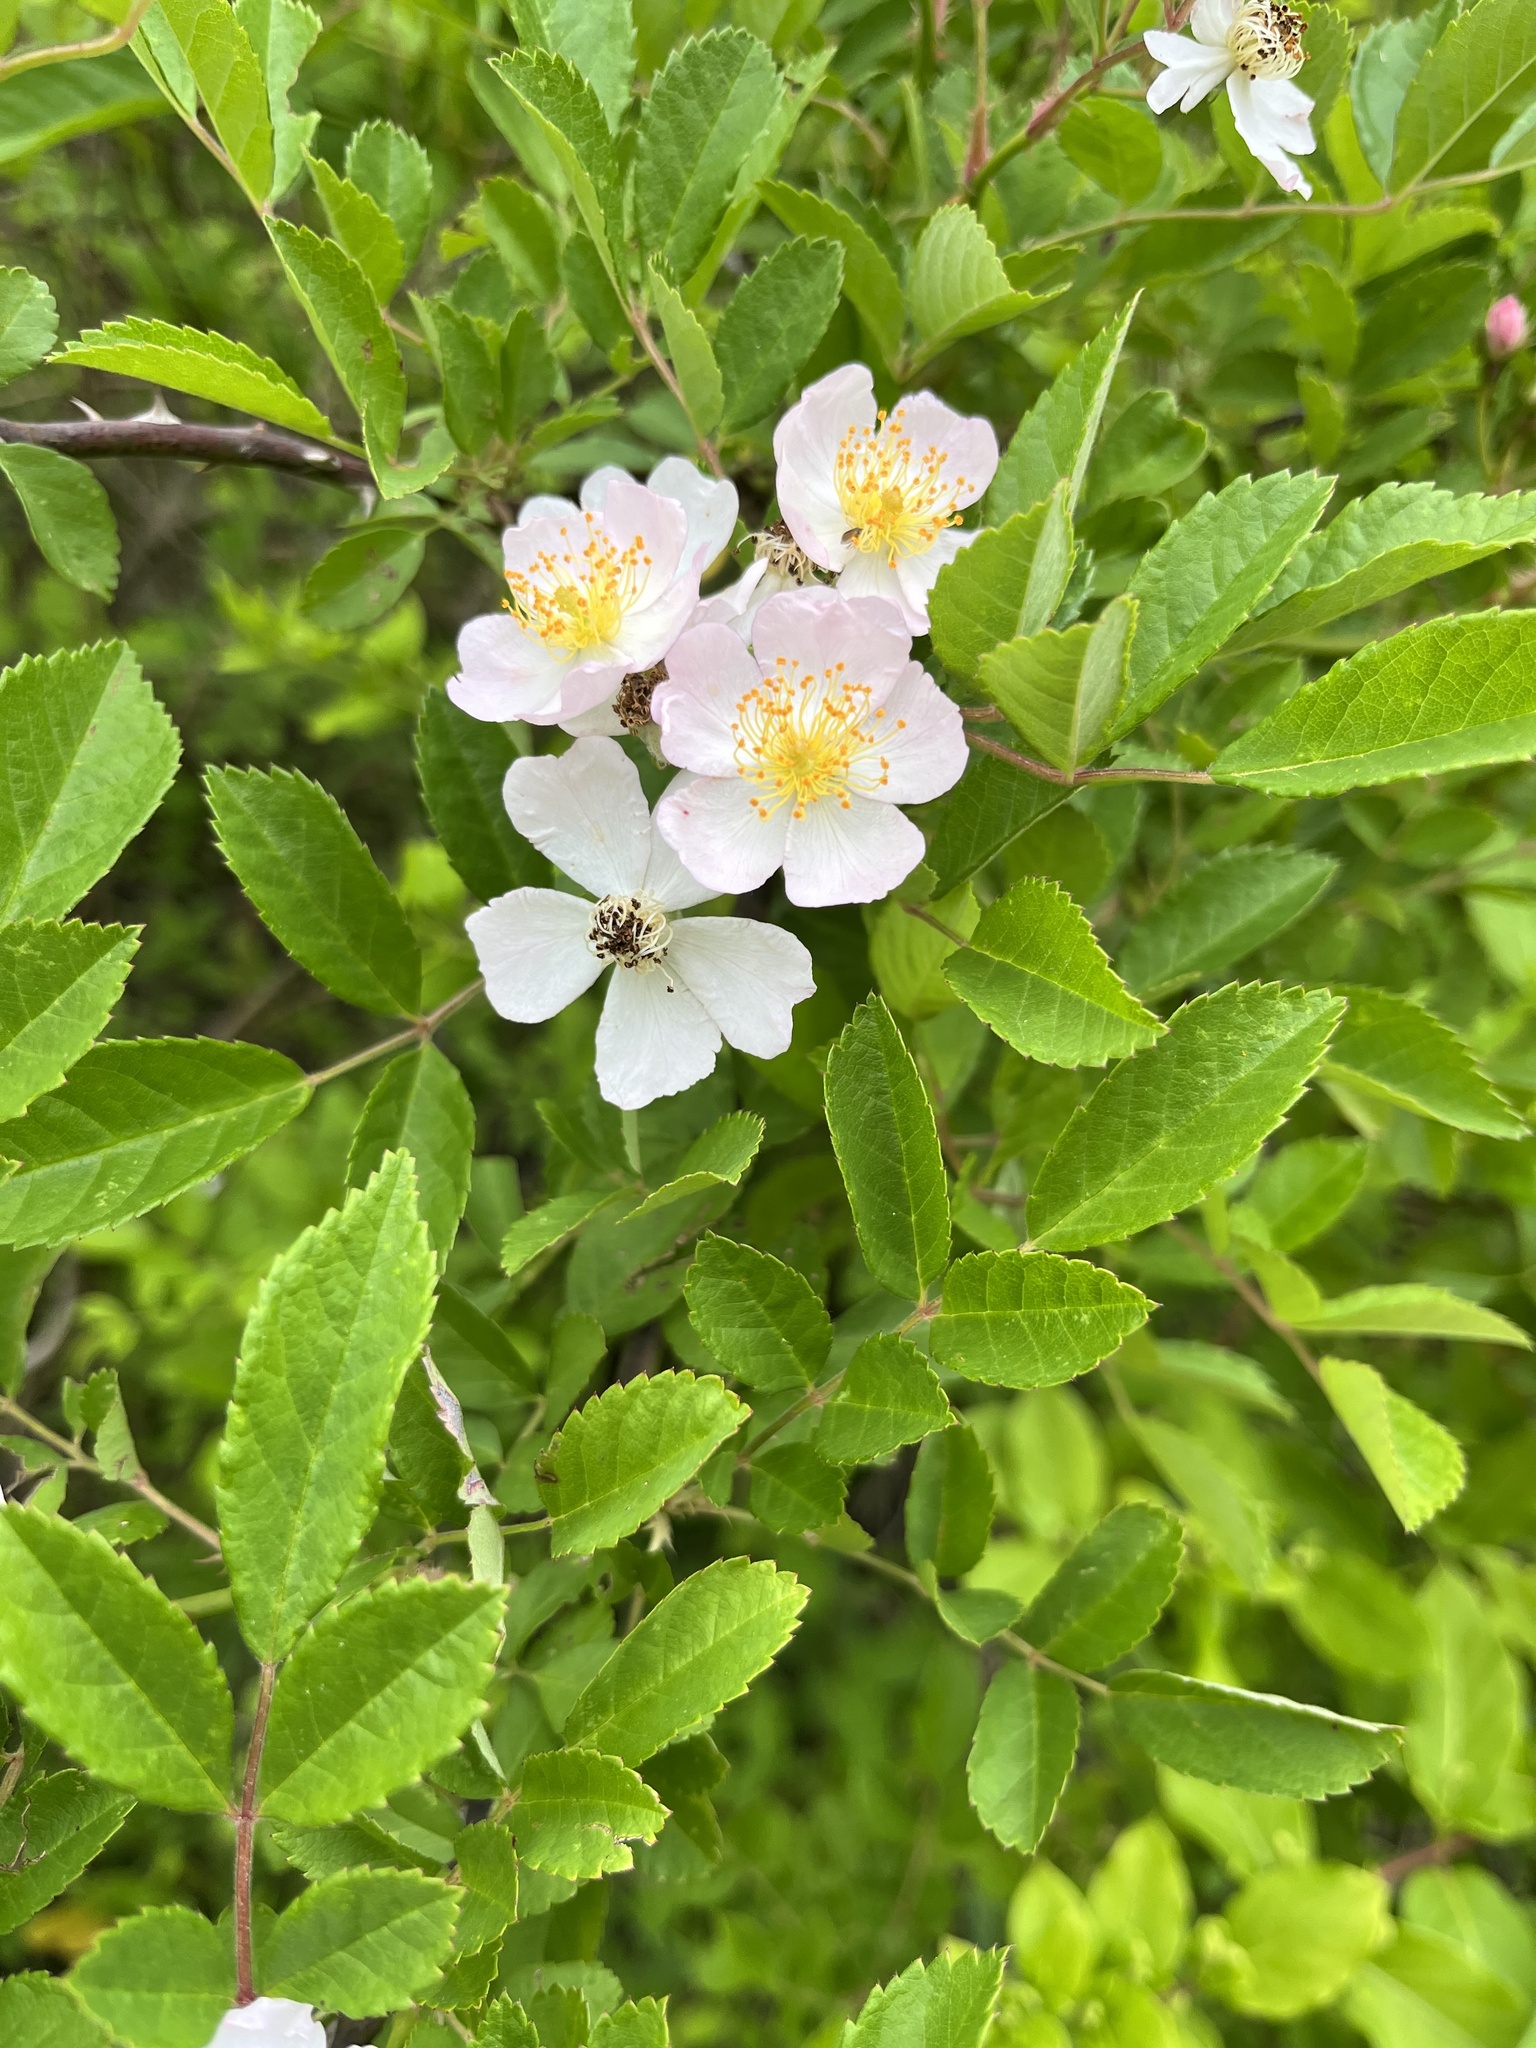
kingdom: Plantae
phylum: Tracheophyta
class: Magnoliopsida
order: Rosales
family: Rosaceae
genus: Rosa
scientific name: Rosa multiflora
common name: Multiflora rose
